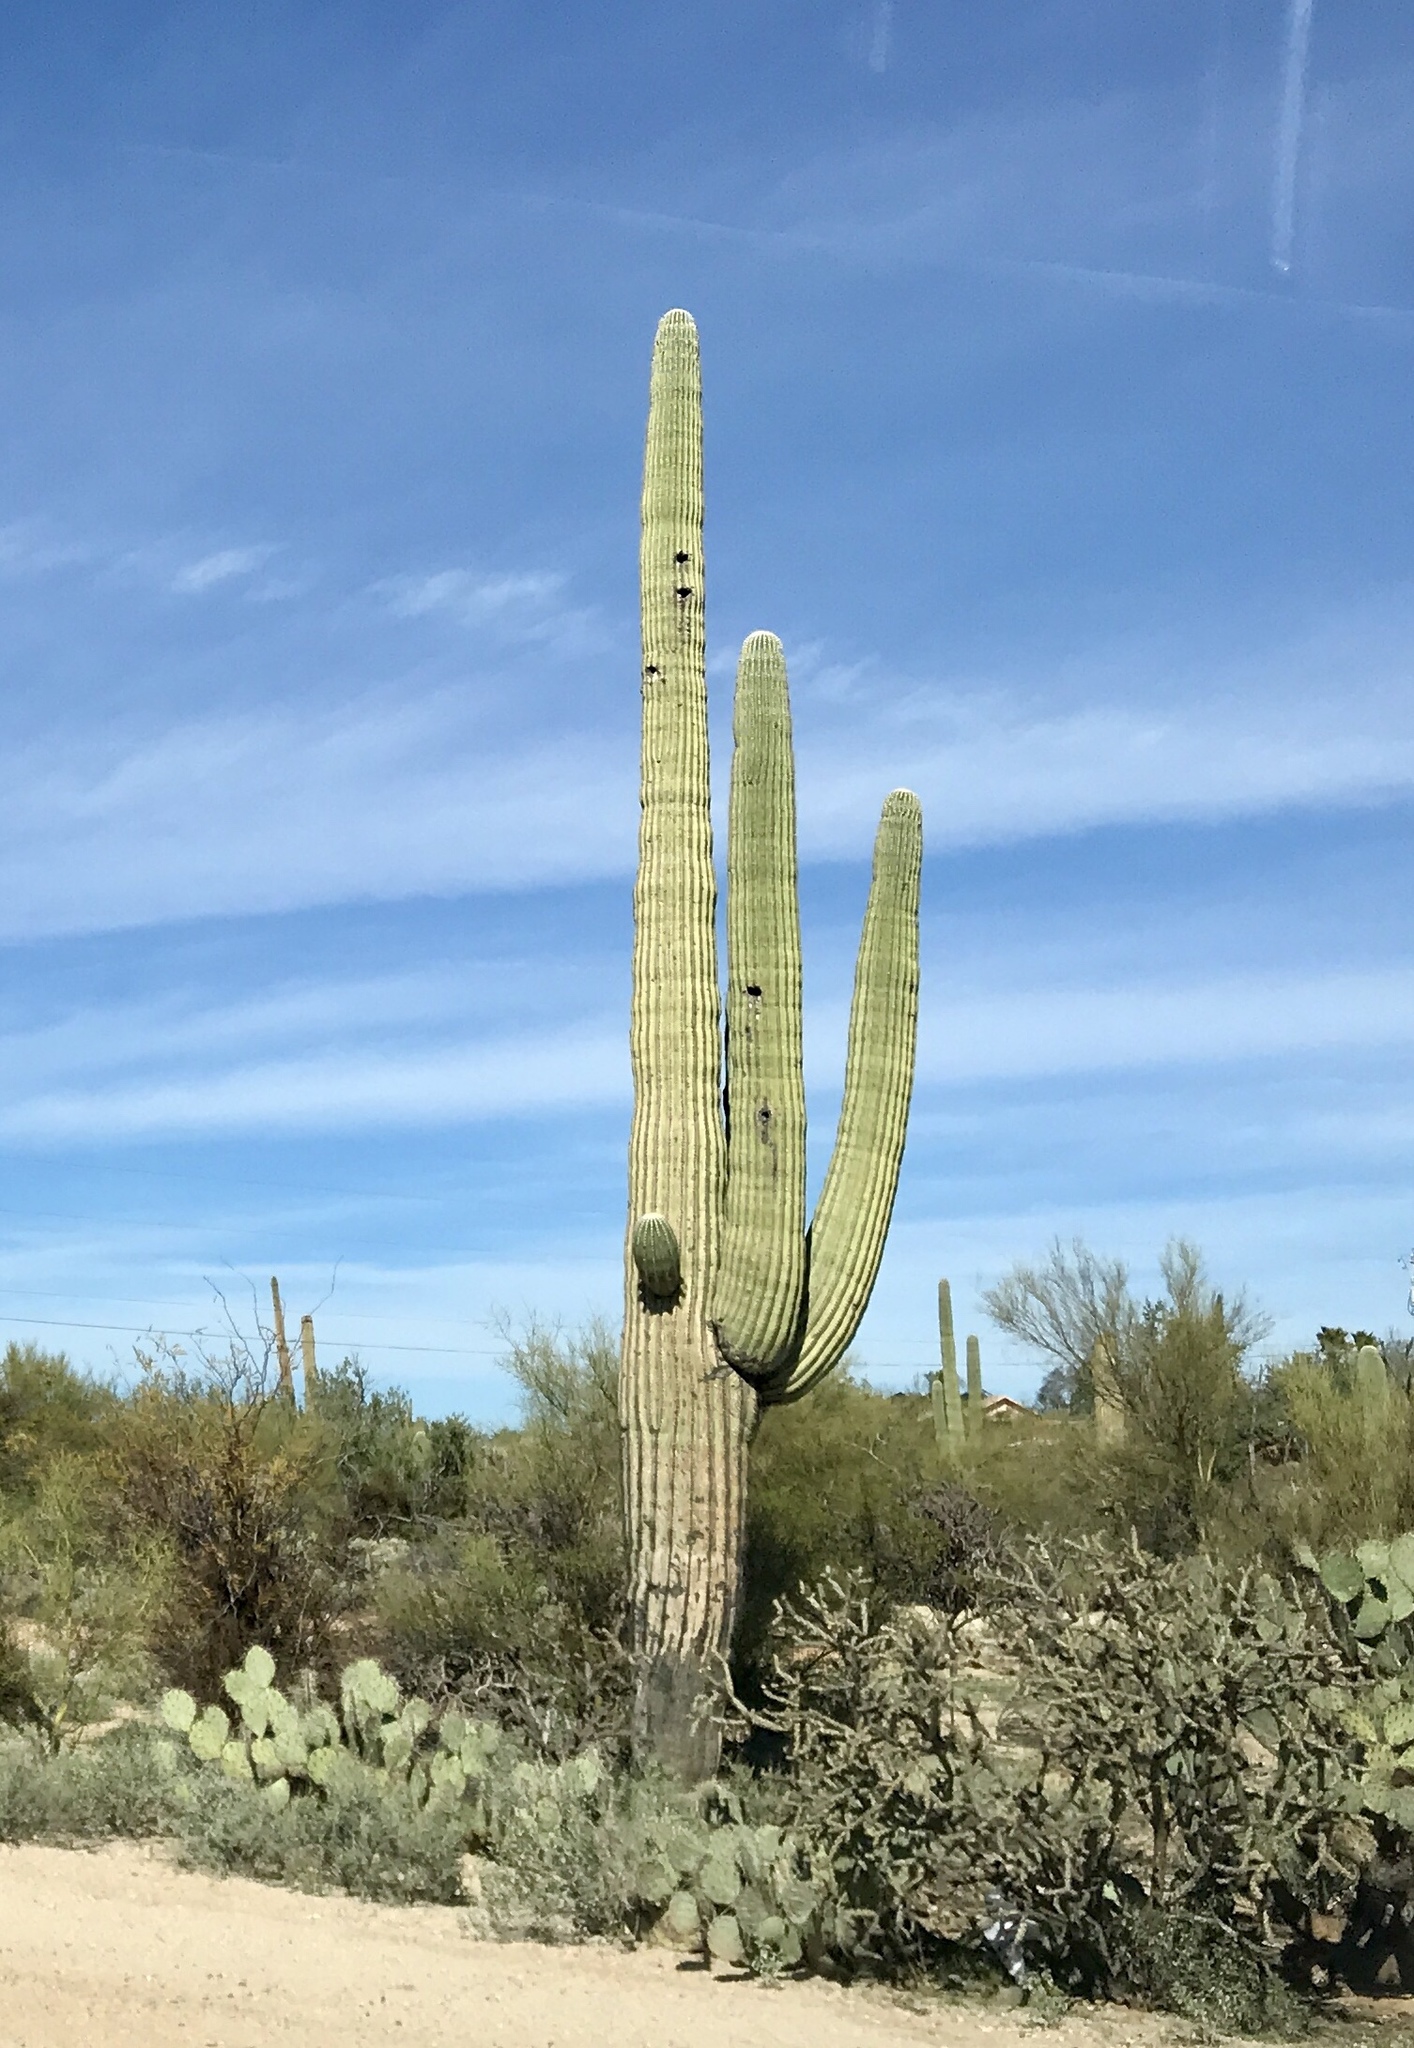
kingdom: Plantae
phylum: Tracheophyta
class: Magnoliopsida
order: Caryophyllales
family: Cactaceae
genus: Carnegiea
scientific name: Carnegiea gigantea
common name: Saguaro
